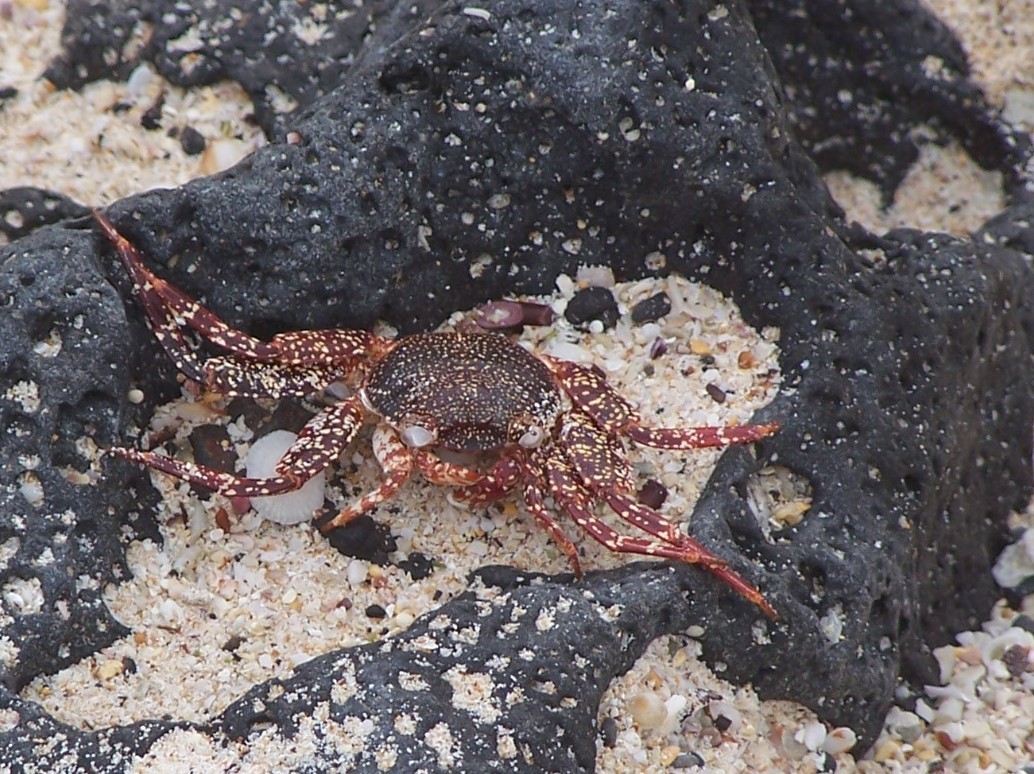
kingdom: Animalia
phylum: Arthropoda
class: Malacostraca
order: Decapoda
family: Grapsidae
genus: Grapsus
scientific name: Grapsus grapsus
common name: Sally lightfoot
